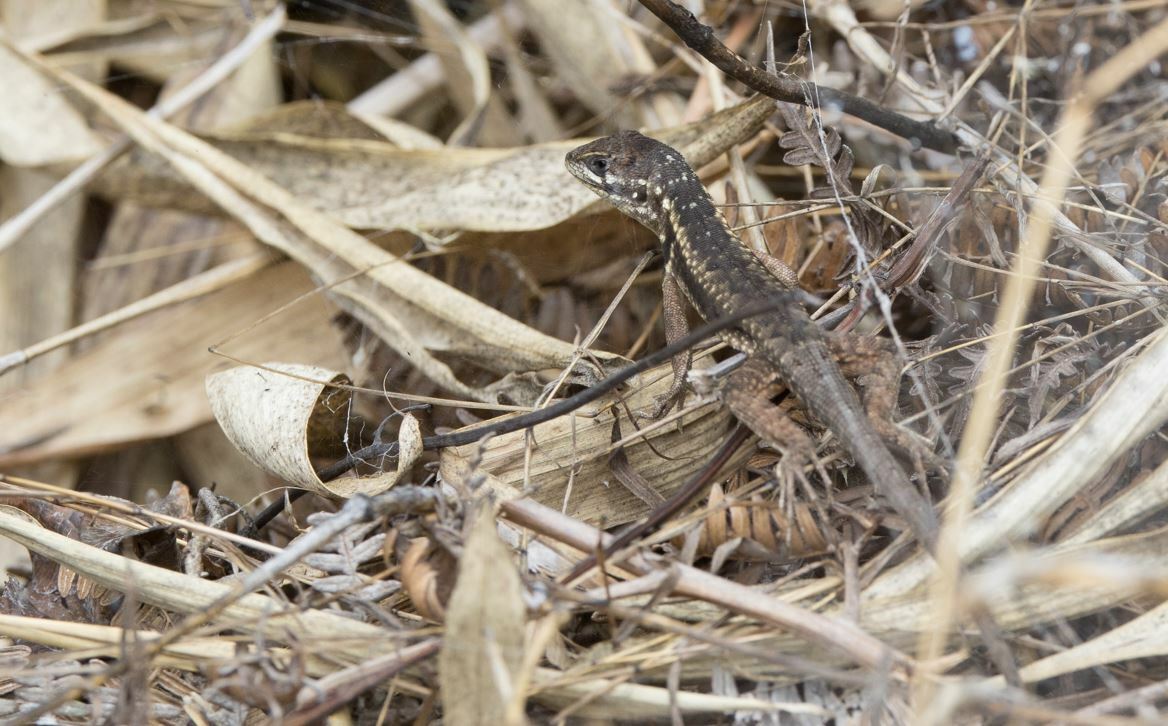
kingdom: Animalia
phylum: Chordata
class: Squamata
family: Tropiduridae
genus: Stenocercus
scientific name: Stenocercus ochoai
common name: Ochoa whorltail iguana
